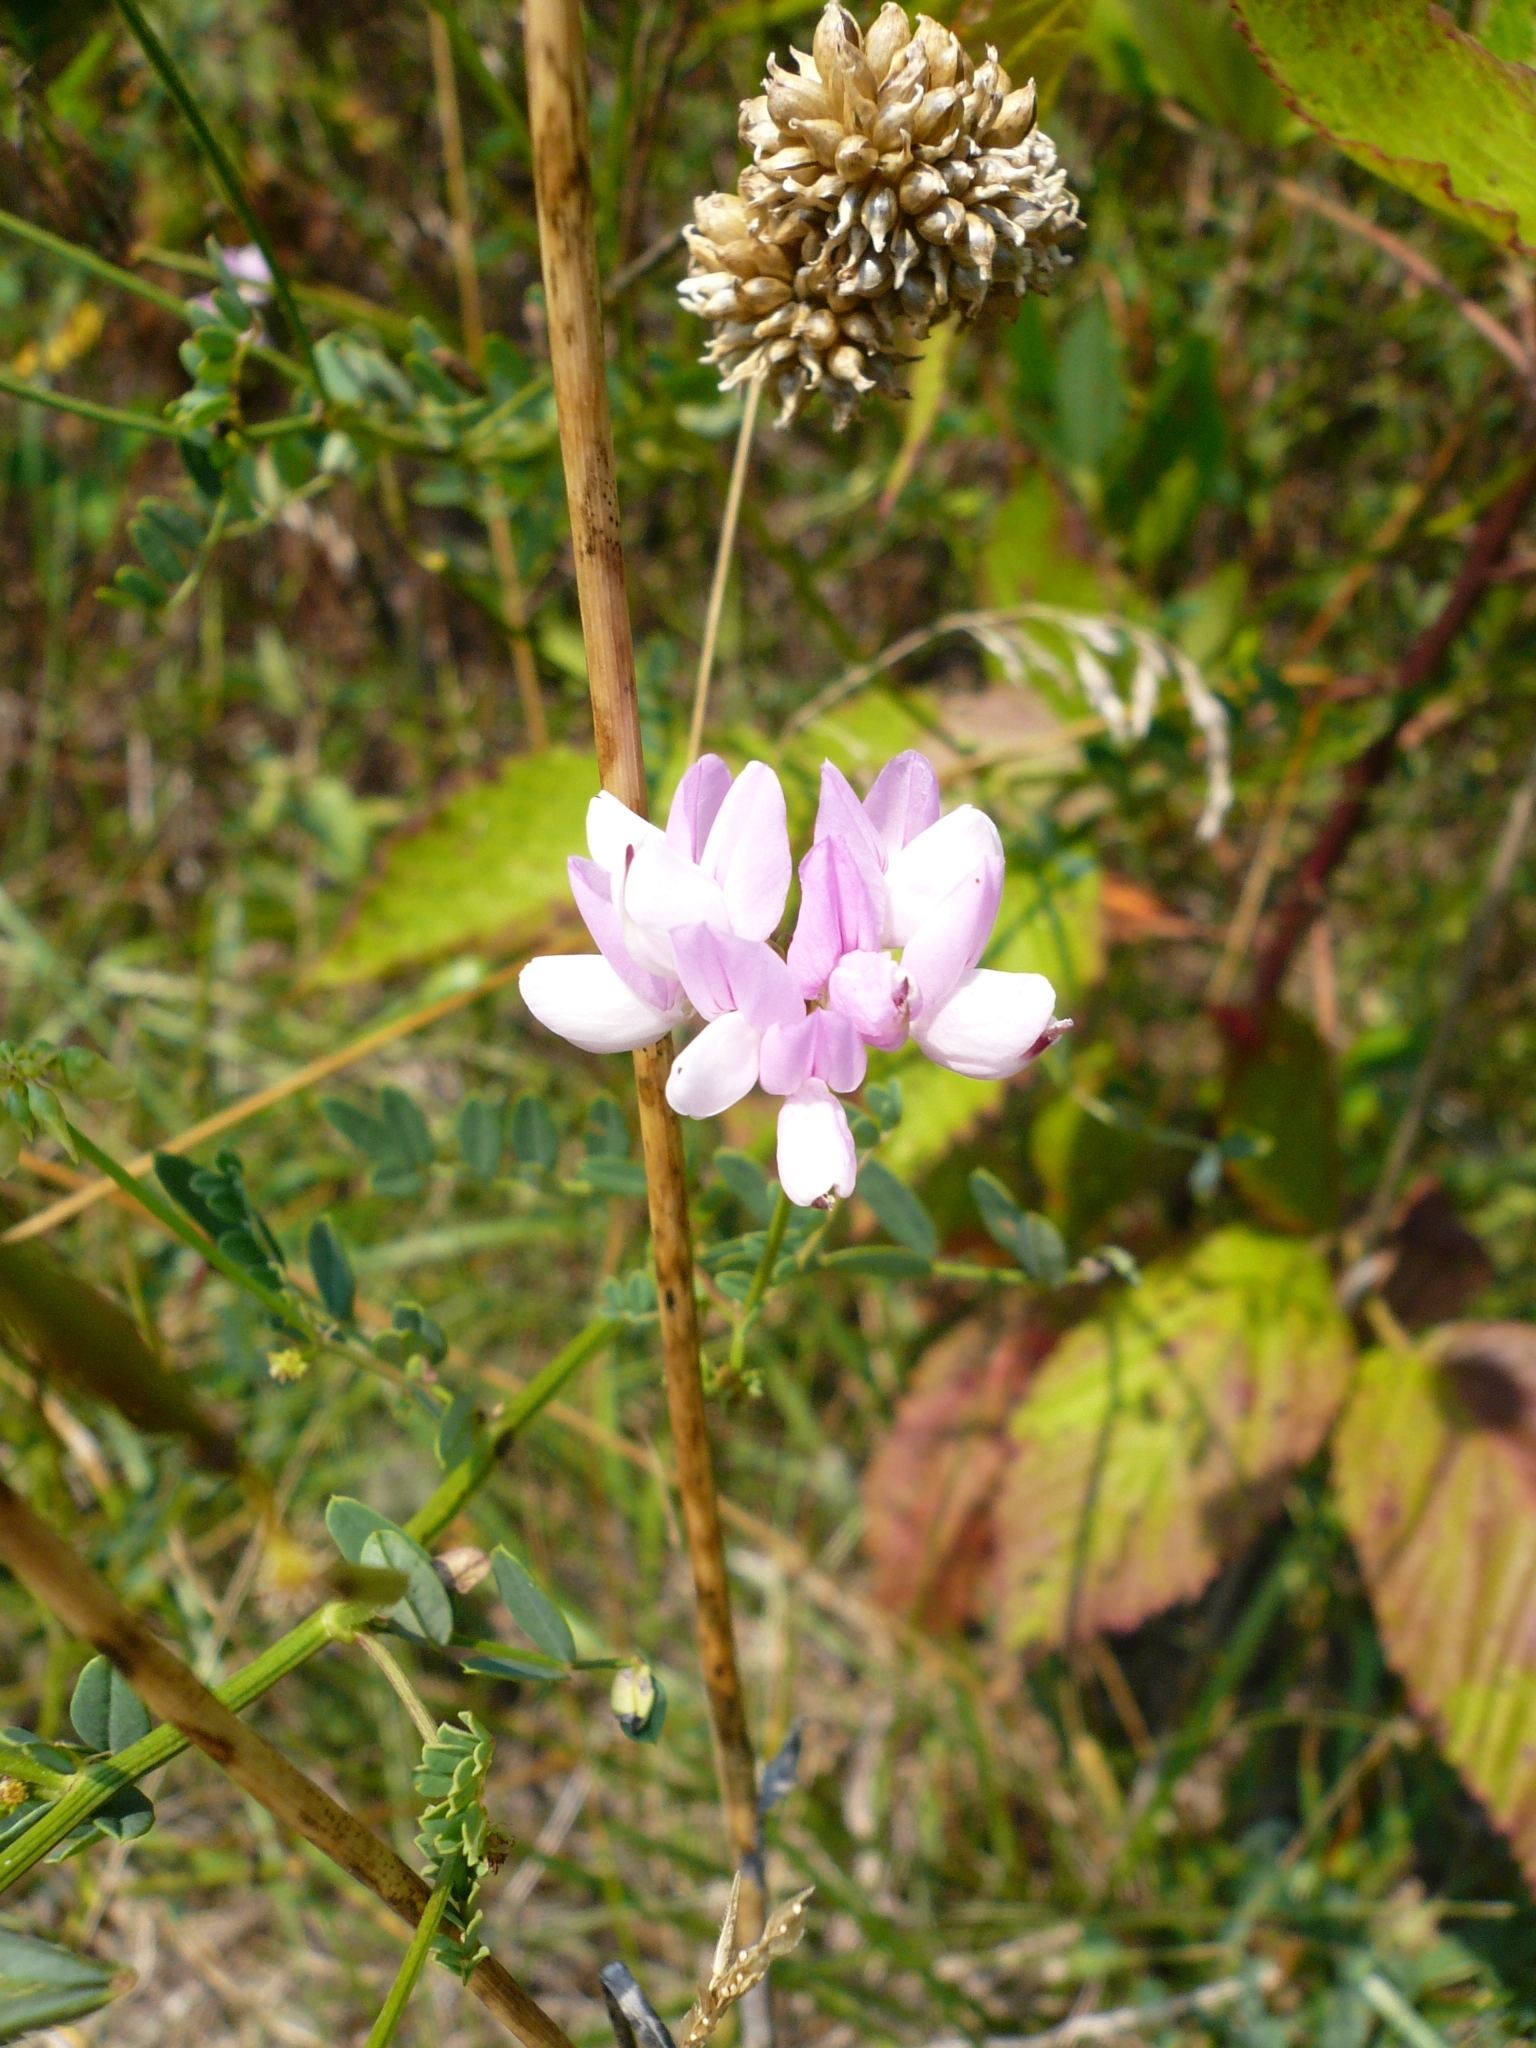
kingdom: Plantae
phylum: Tracheophyta
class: Magnoliopsida
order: Fabales
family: Fabaceae
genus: Coronilla
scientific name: Coronilla varia
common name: Crownvetch
